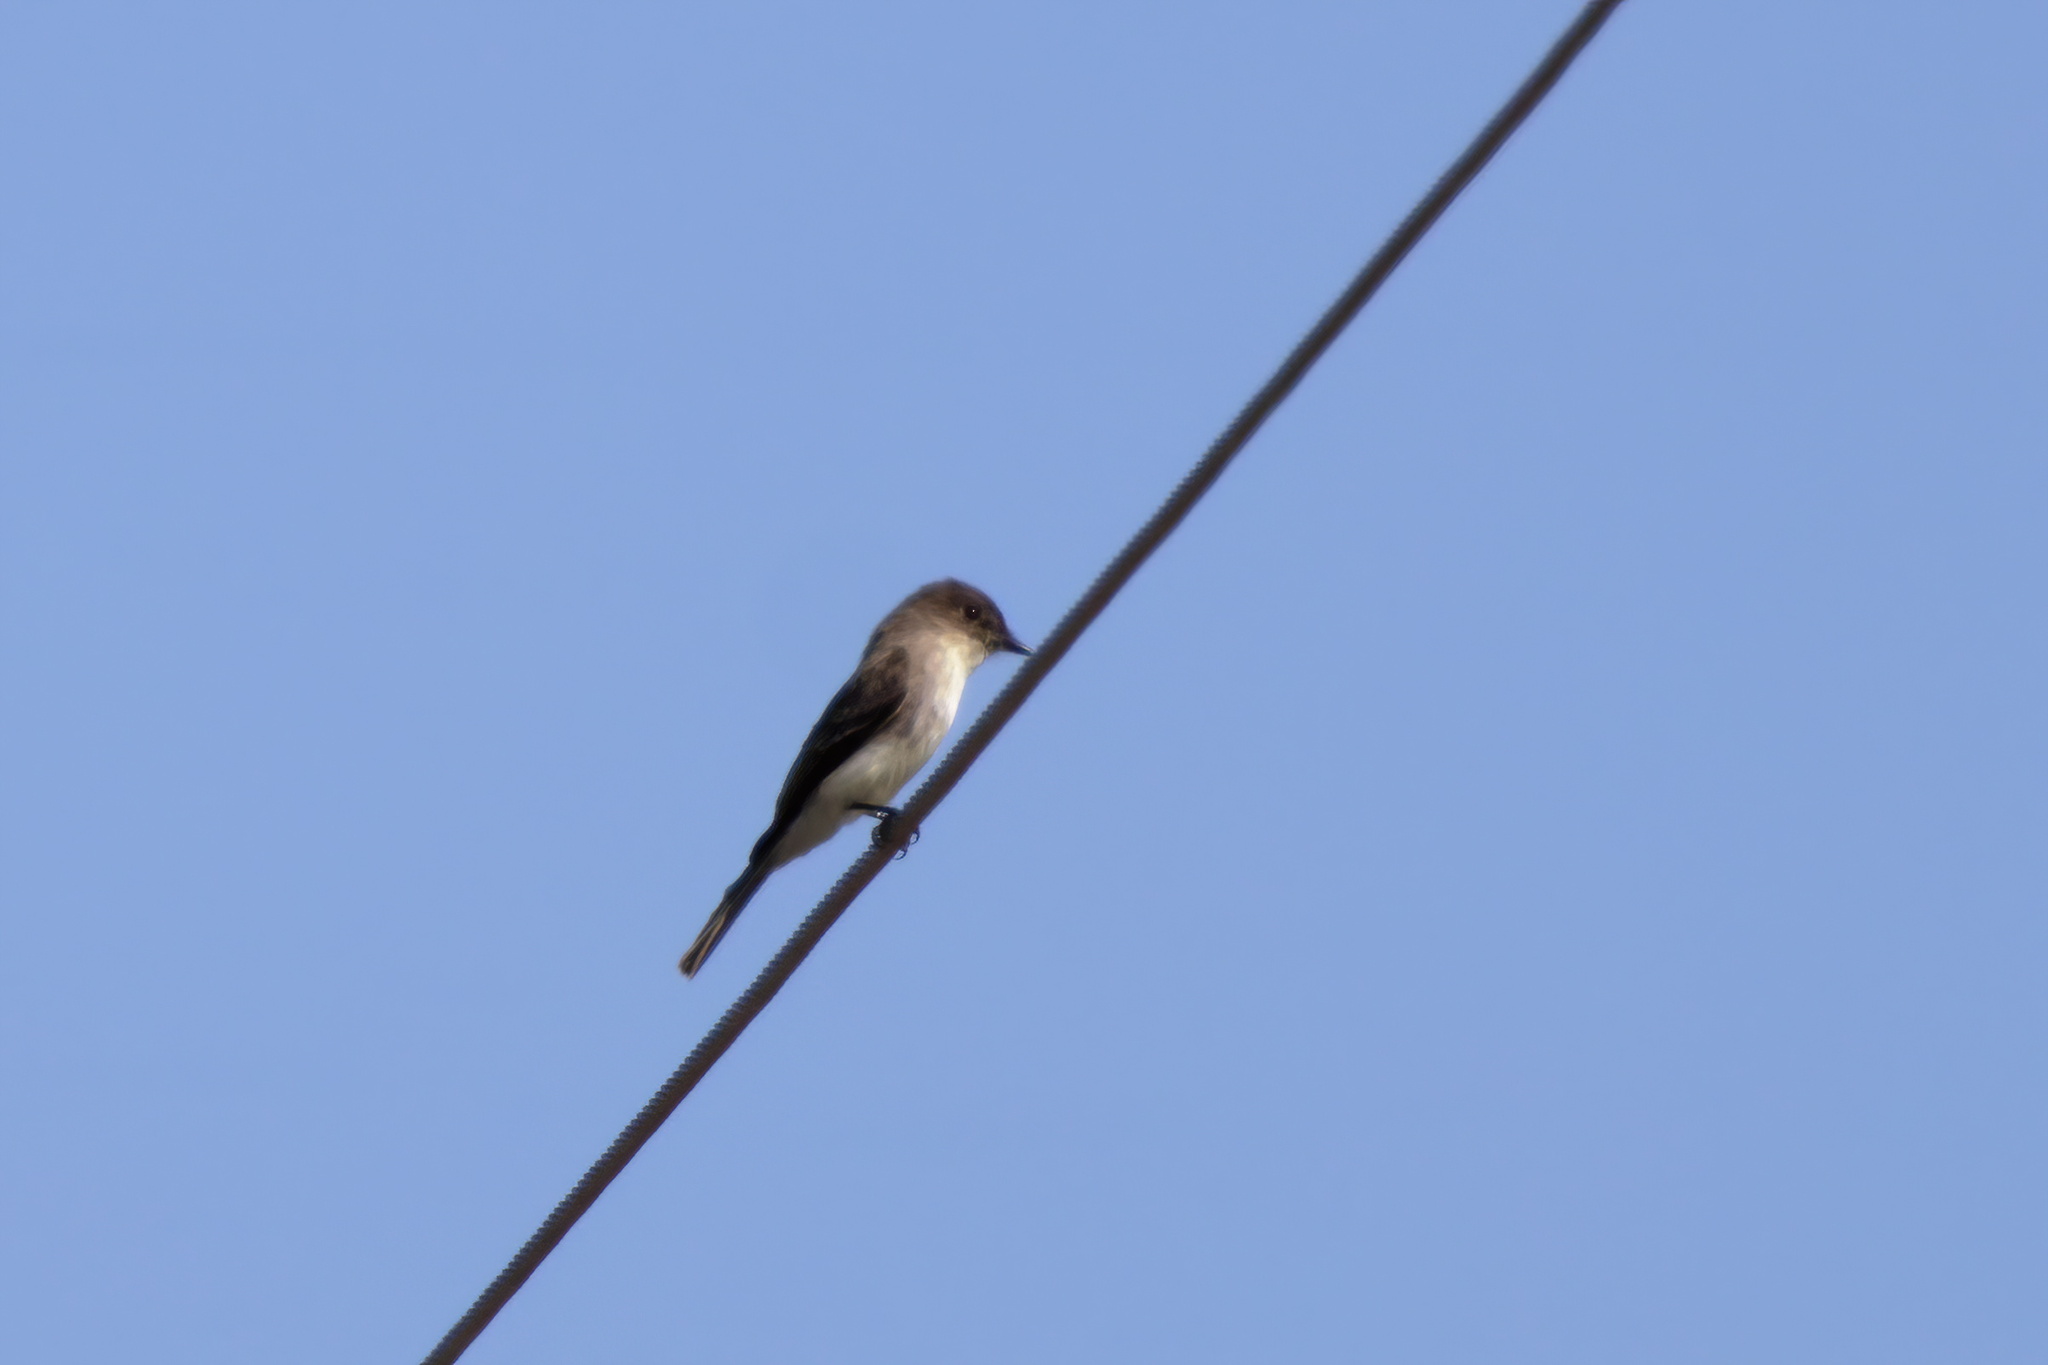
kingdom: Animalia
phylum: Chordata
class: Aves
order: Passeriformes
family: Tyrannidae
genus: Sayornis
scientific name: Sayornis phoebe
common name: Eastern phoebe
